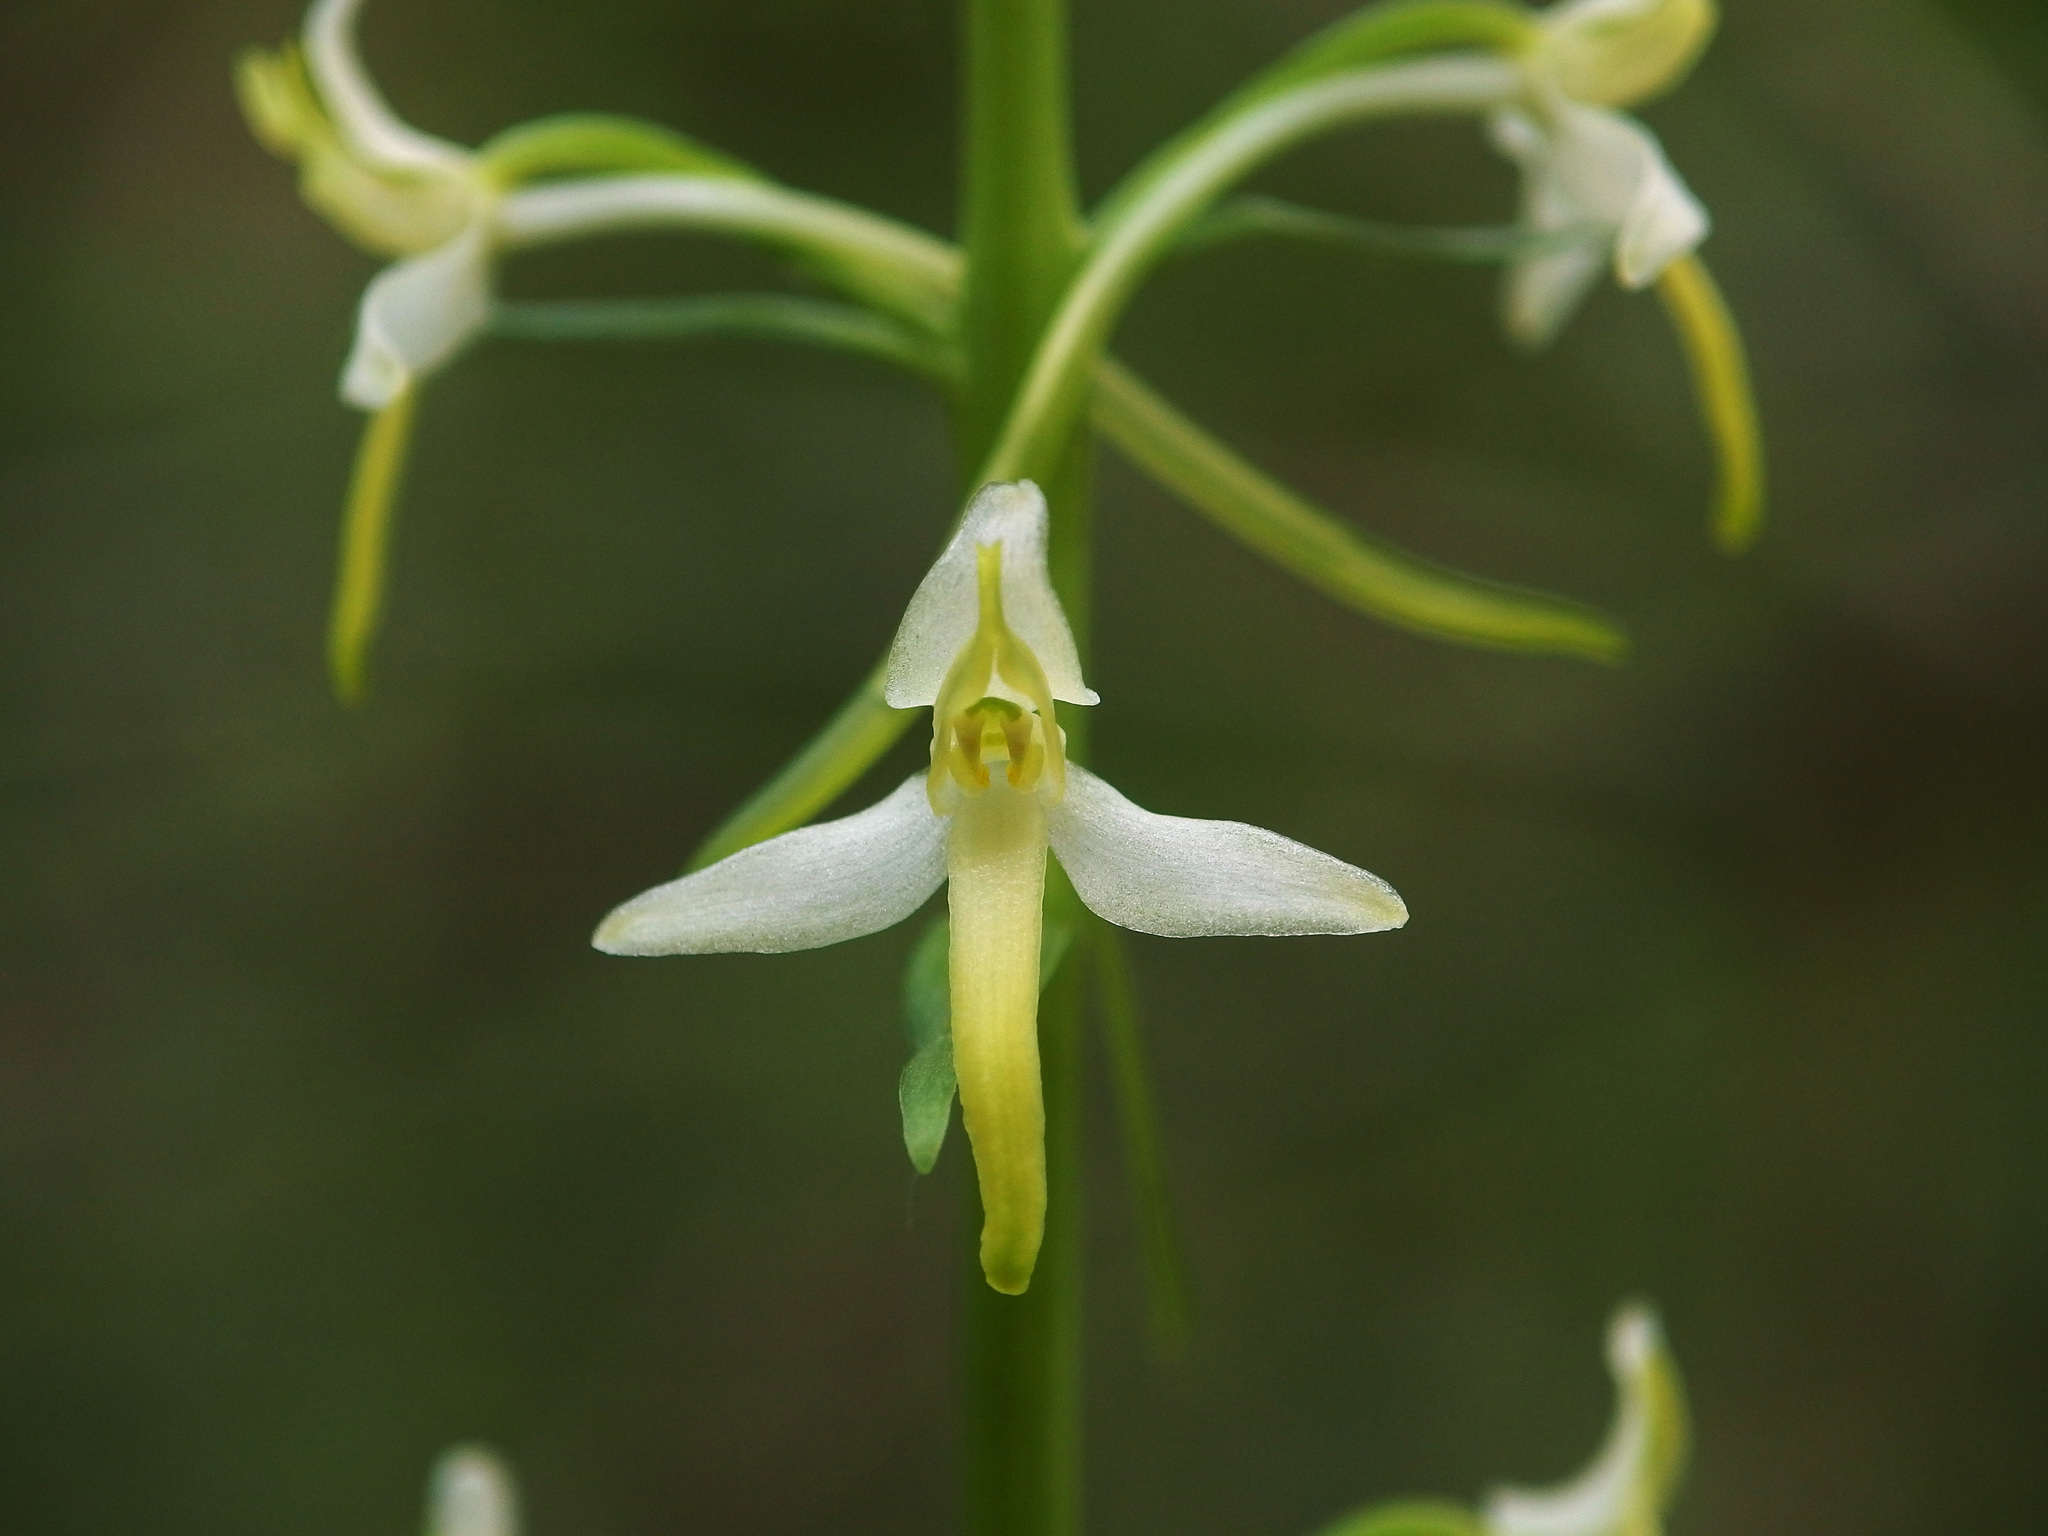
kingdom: Plantae
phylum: Tracheophyta
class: Liliopsida
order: Asparagales
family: Orchidaceae
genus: Platanthera
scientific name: Platanthera bifolia
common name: Lesser butterfly-orchid
